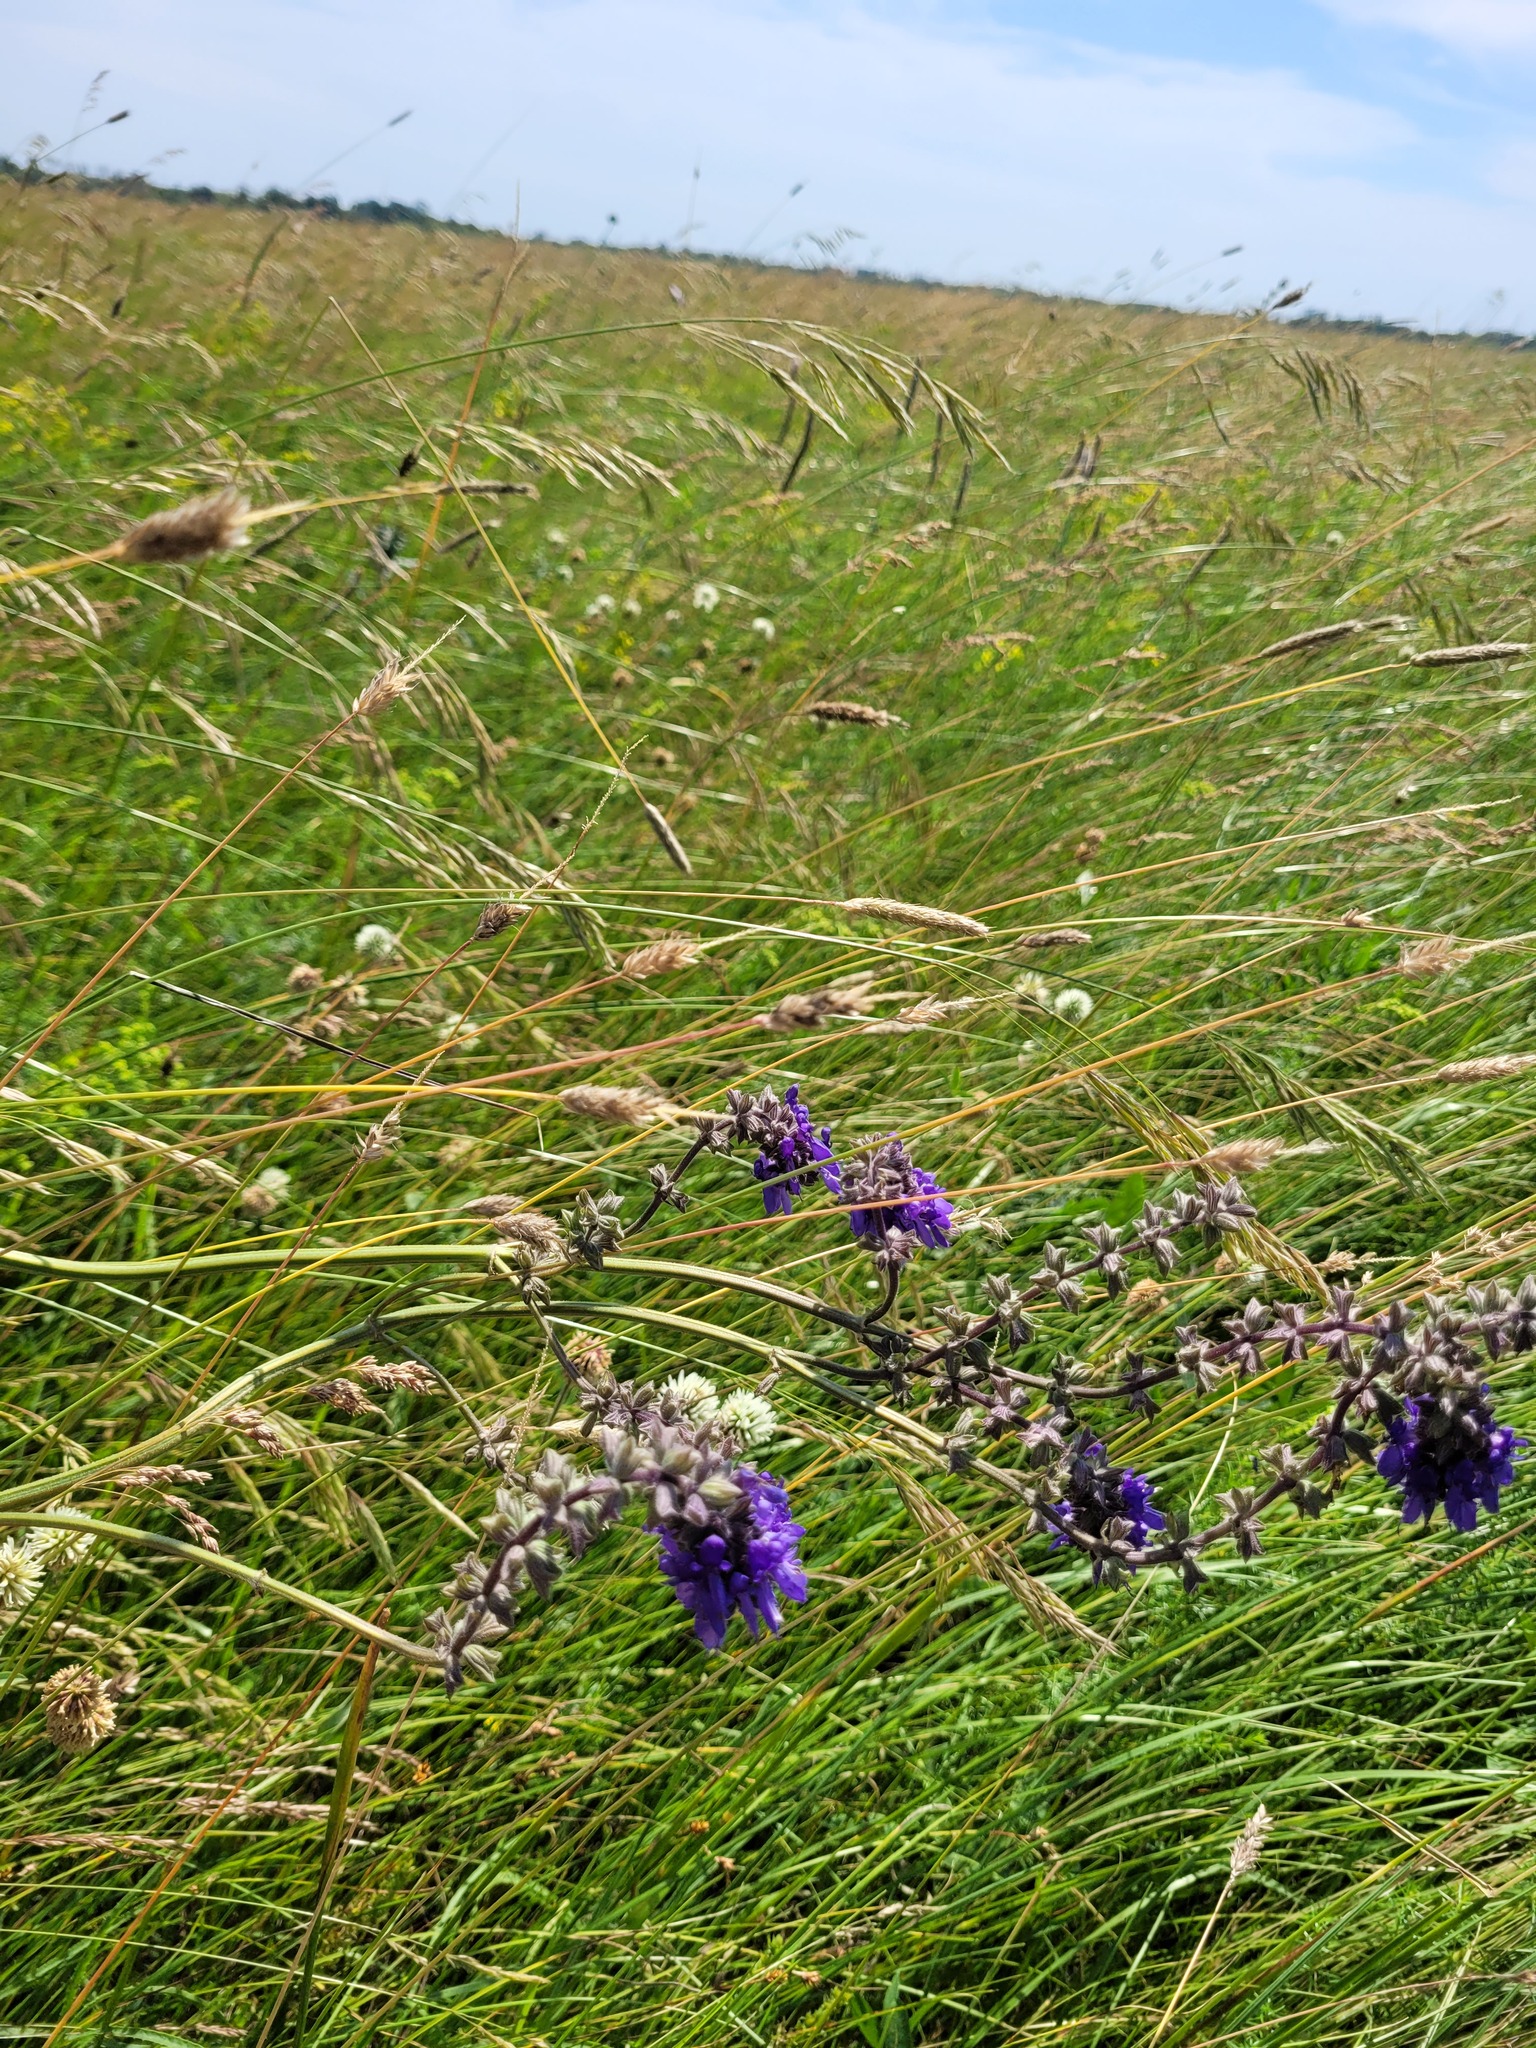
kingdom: Plantae
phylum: Tracheophyta
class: Magnoliopsida
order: Lamiales
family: Lamiaceae
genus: Salvia
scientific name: Salvia nutans
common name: Nodding sage
